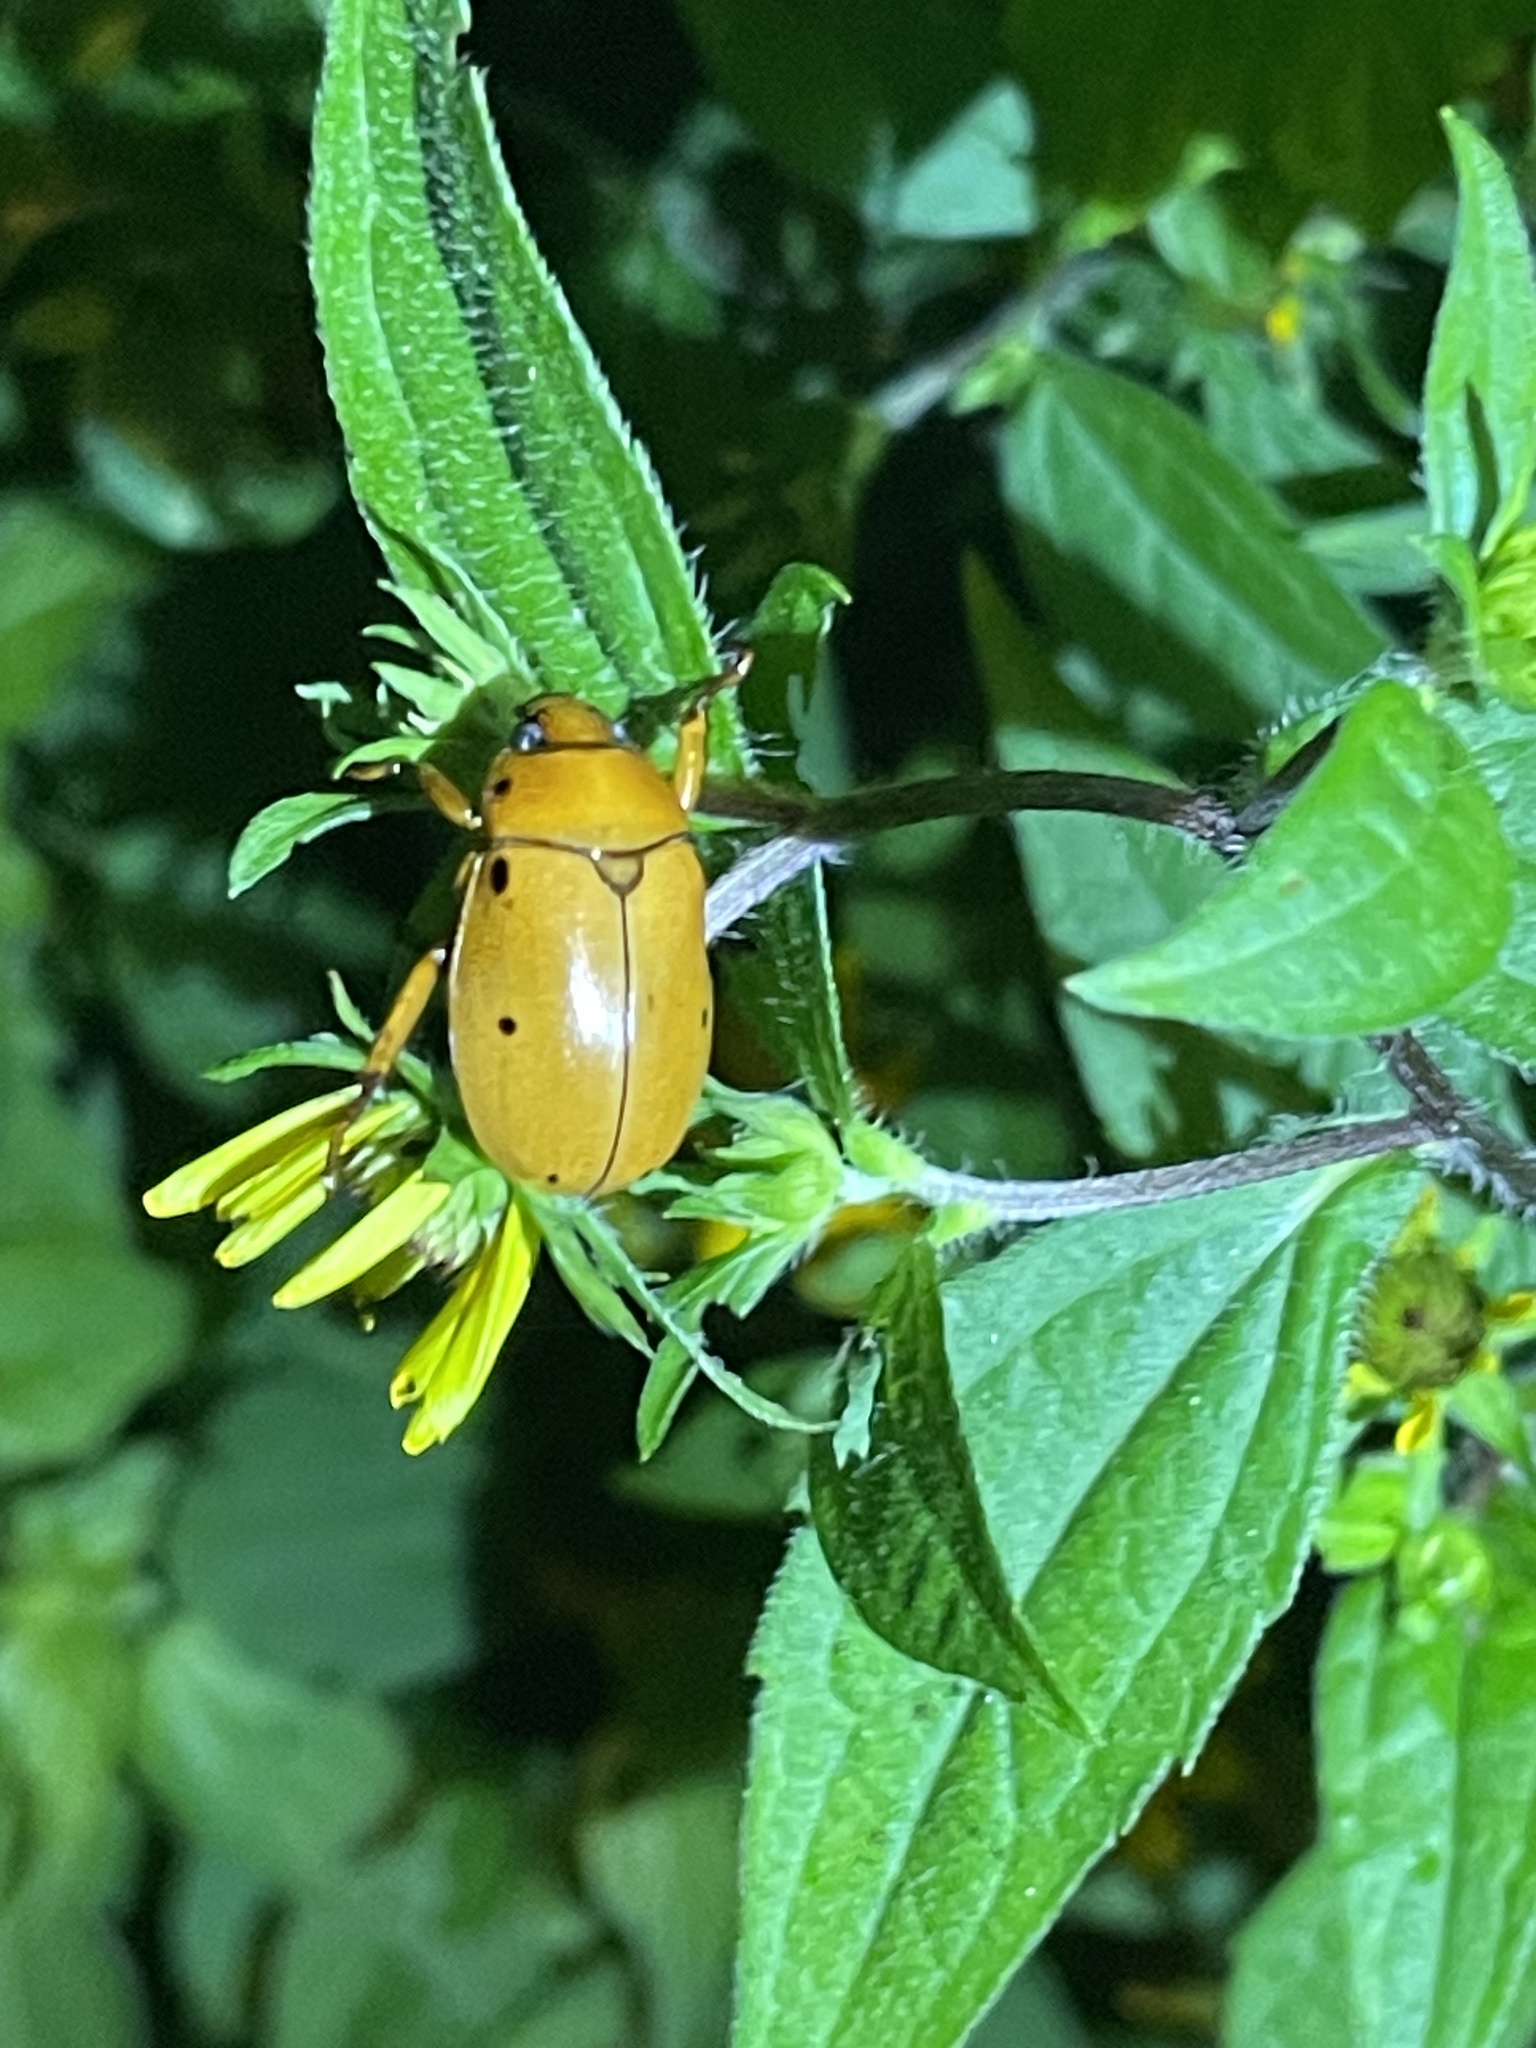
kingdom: Animalia
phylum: Arthropoda
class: Insecta
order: Coleoptera
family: Scarabaeidae
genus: Pelidnota
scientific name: Pelidnota punctata
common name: Grapevine beetle
